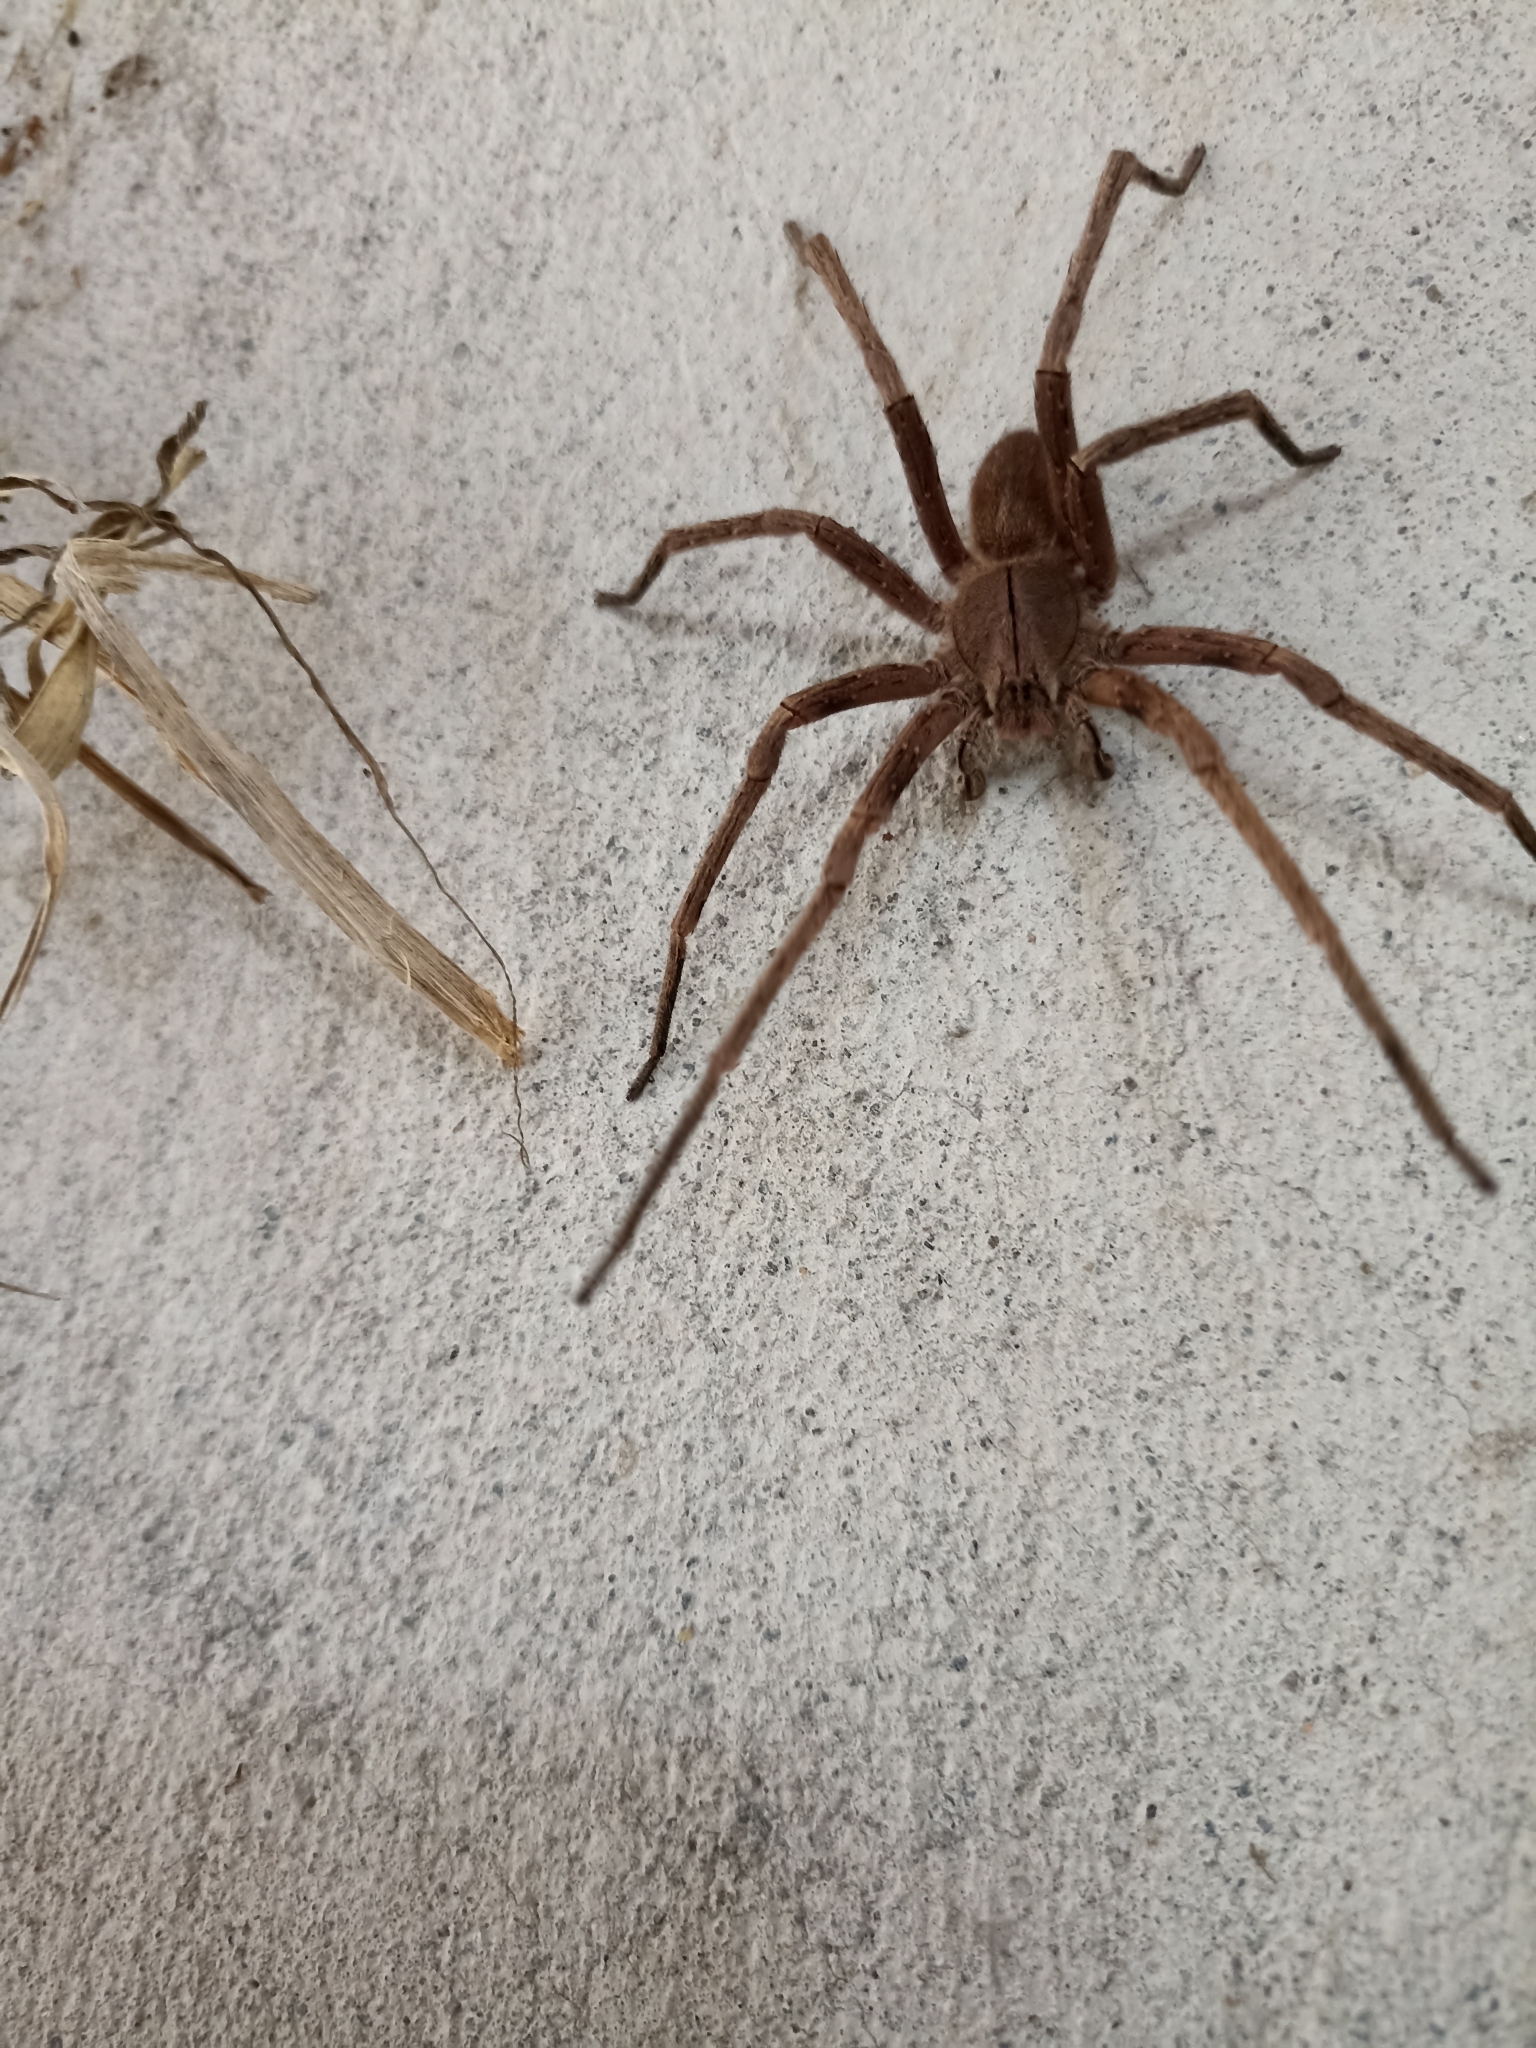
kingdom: Animalia
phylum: Arthropoda
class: Arachnida
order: Araneae
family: Ctenidae
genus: Phoneutria
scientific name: Phoneutria depilata
